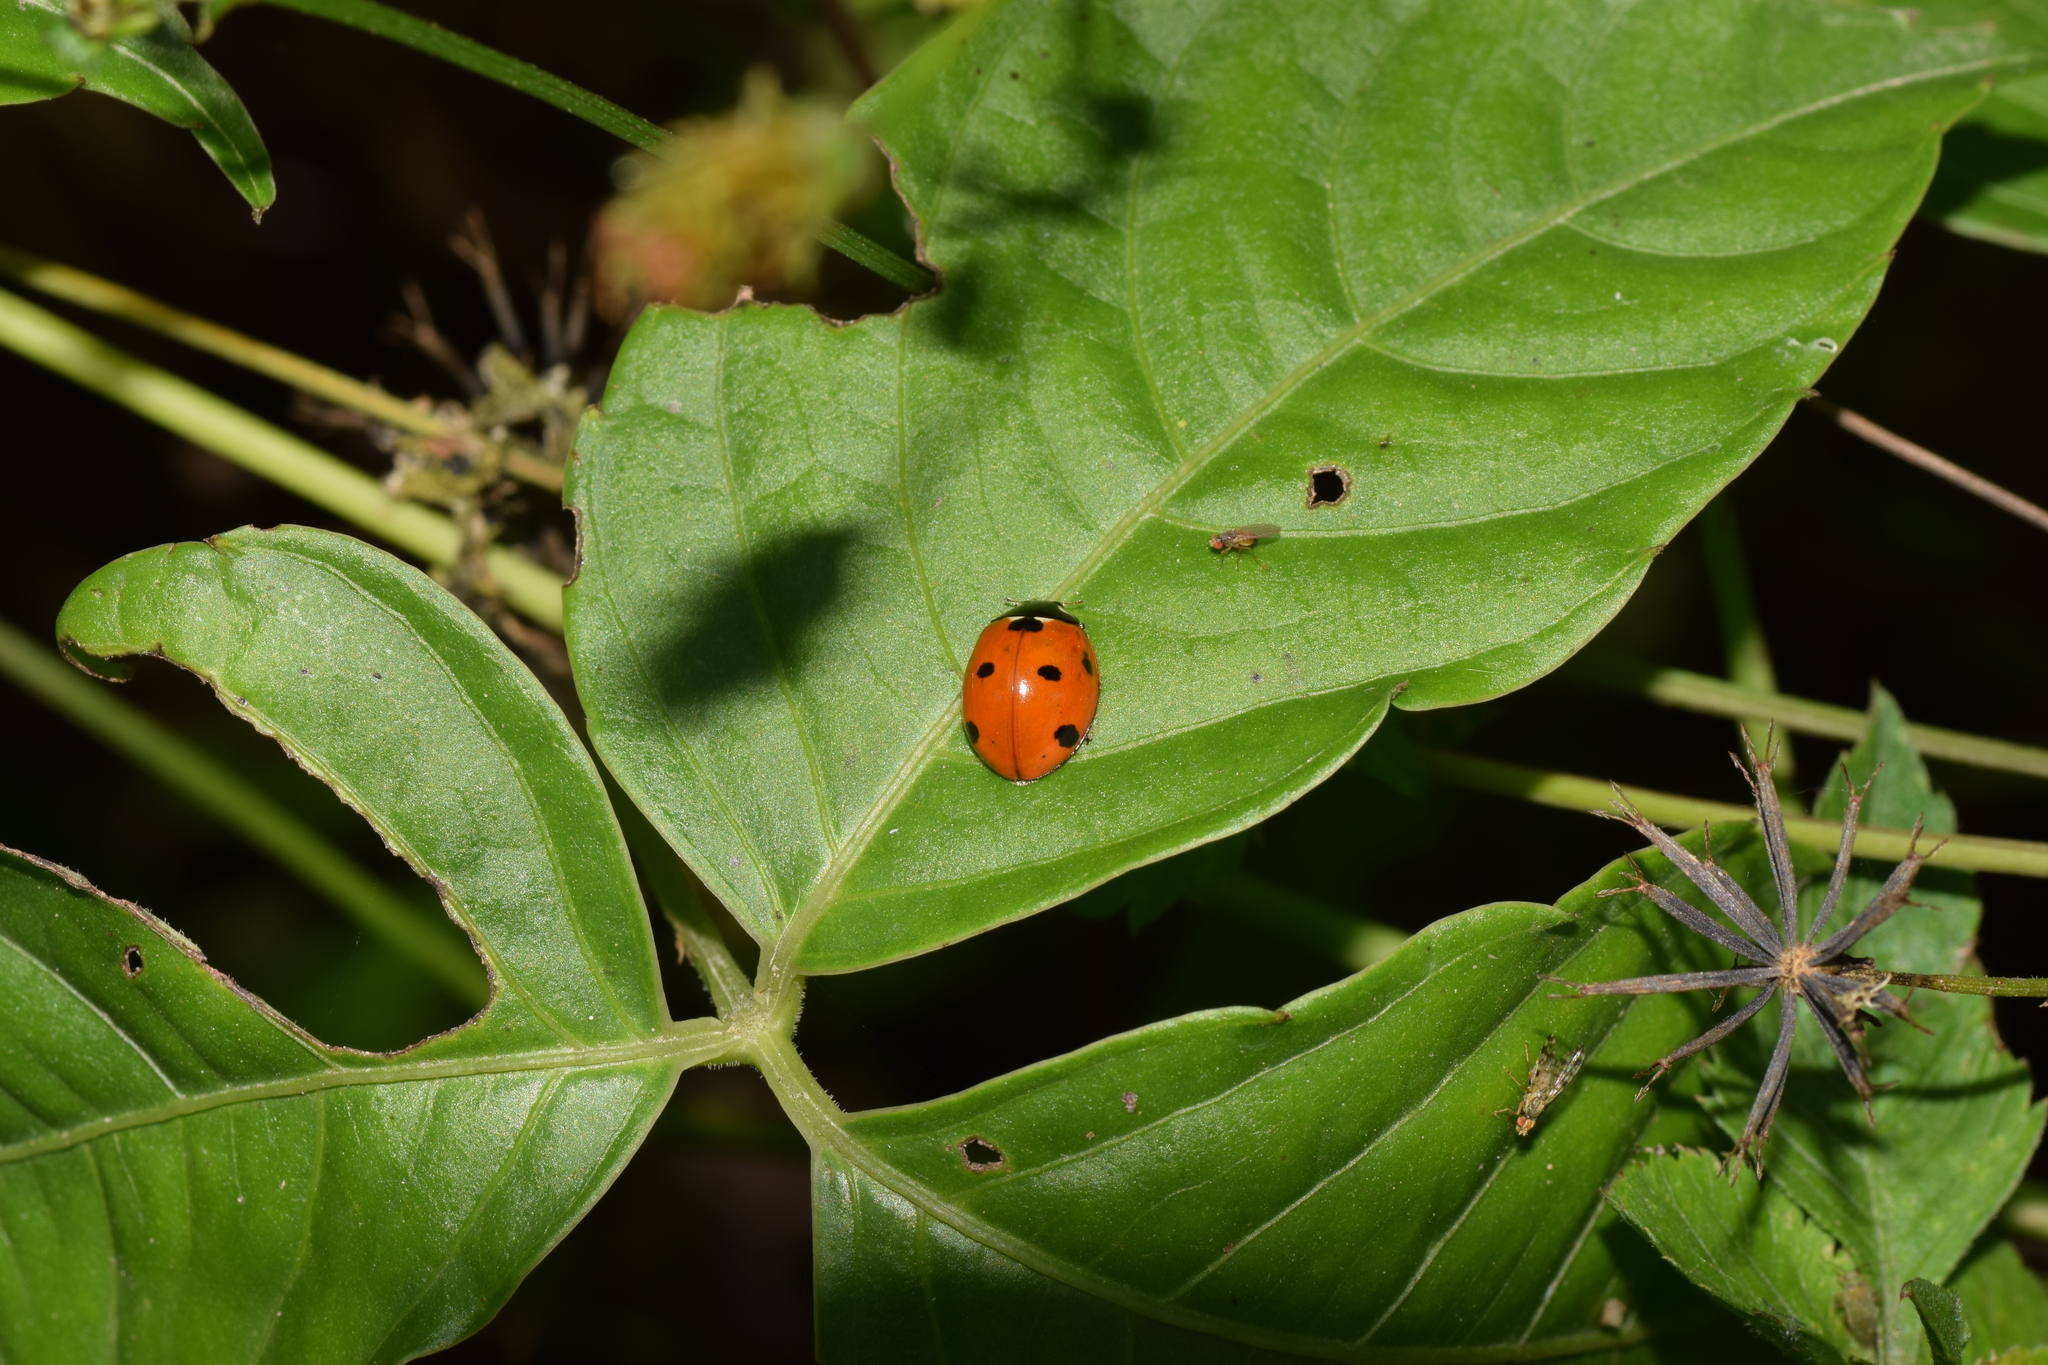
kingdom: Animalia
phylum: Arthropoda
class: Insecta
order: Coleoptera
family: Coccinellidae
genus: Coccinella
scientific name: Coccinella septempunctata
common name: Sevenspotted lady beetle
